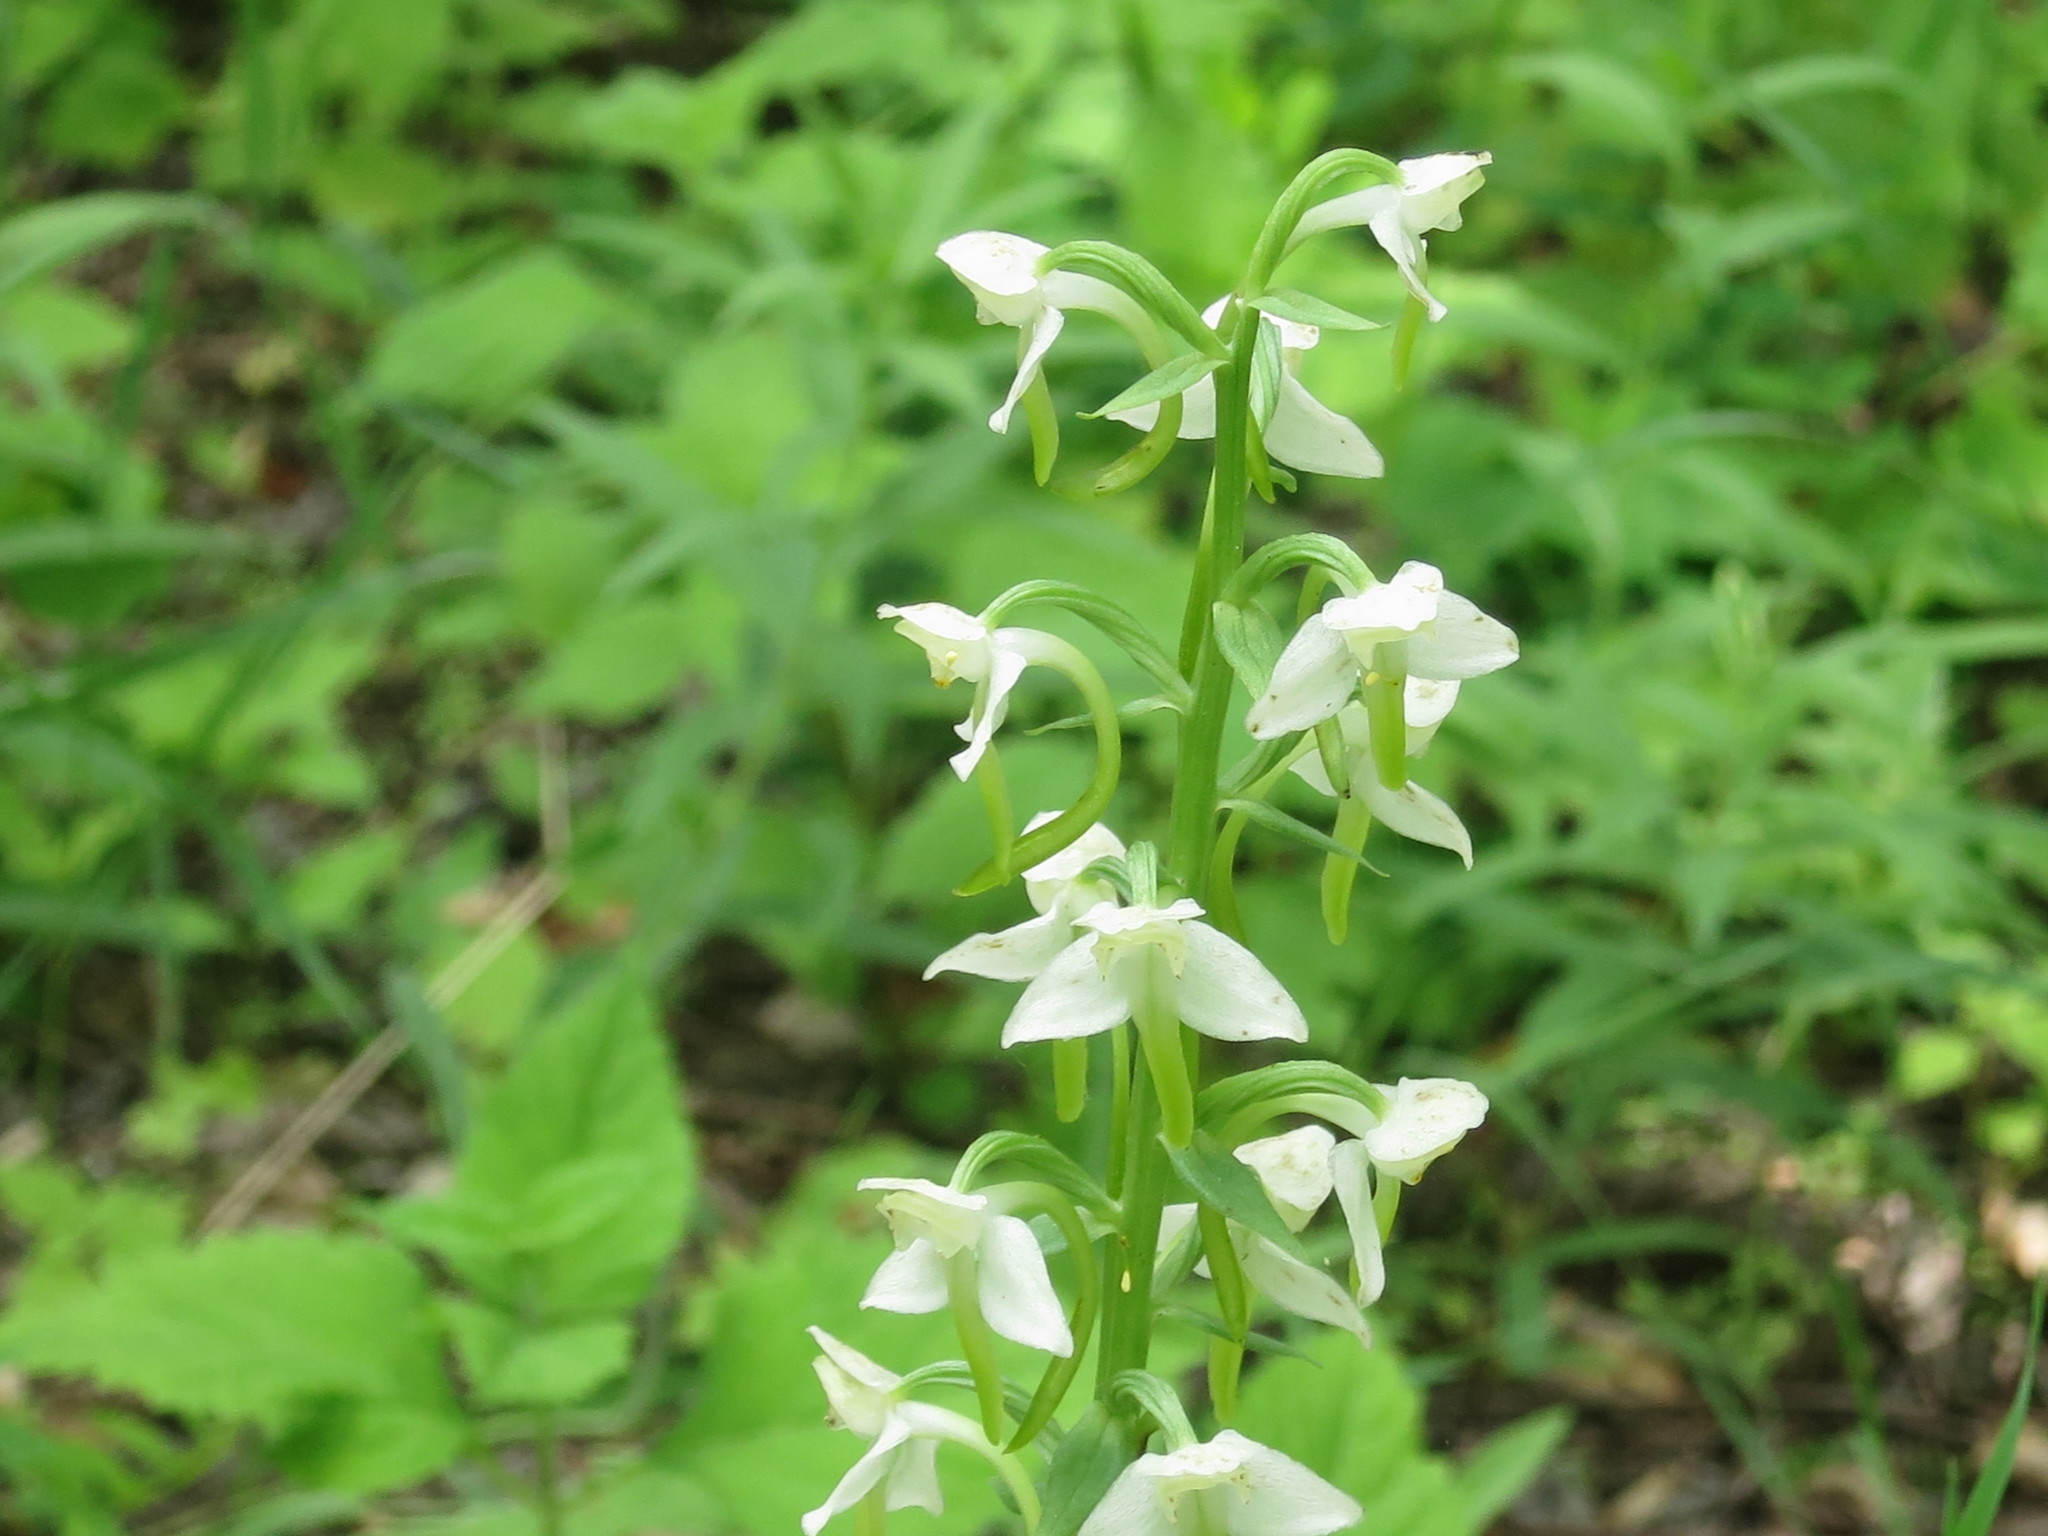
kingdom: Plantae
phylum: Tracheophyta
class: Liliopsida
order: Asparagales
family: Orchidaceae
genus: Platanthera
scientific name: Platanthera densa
